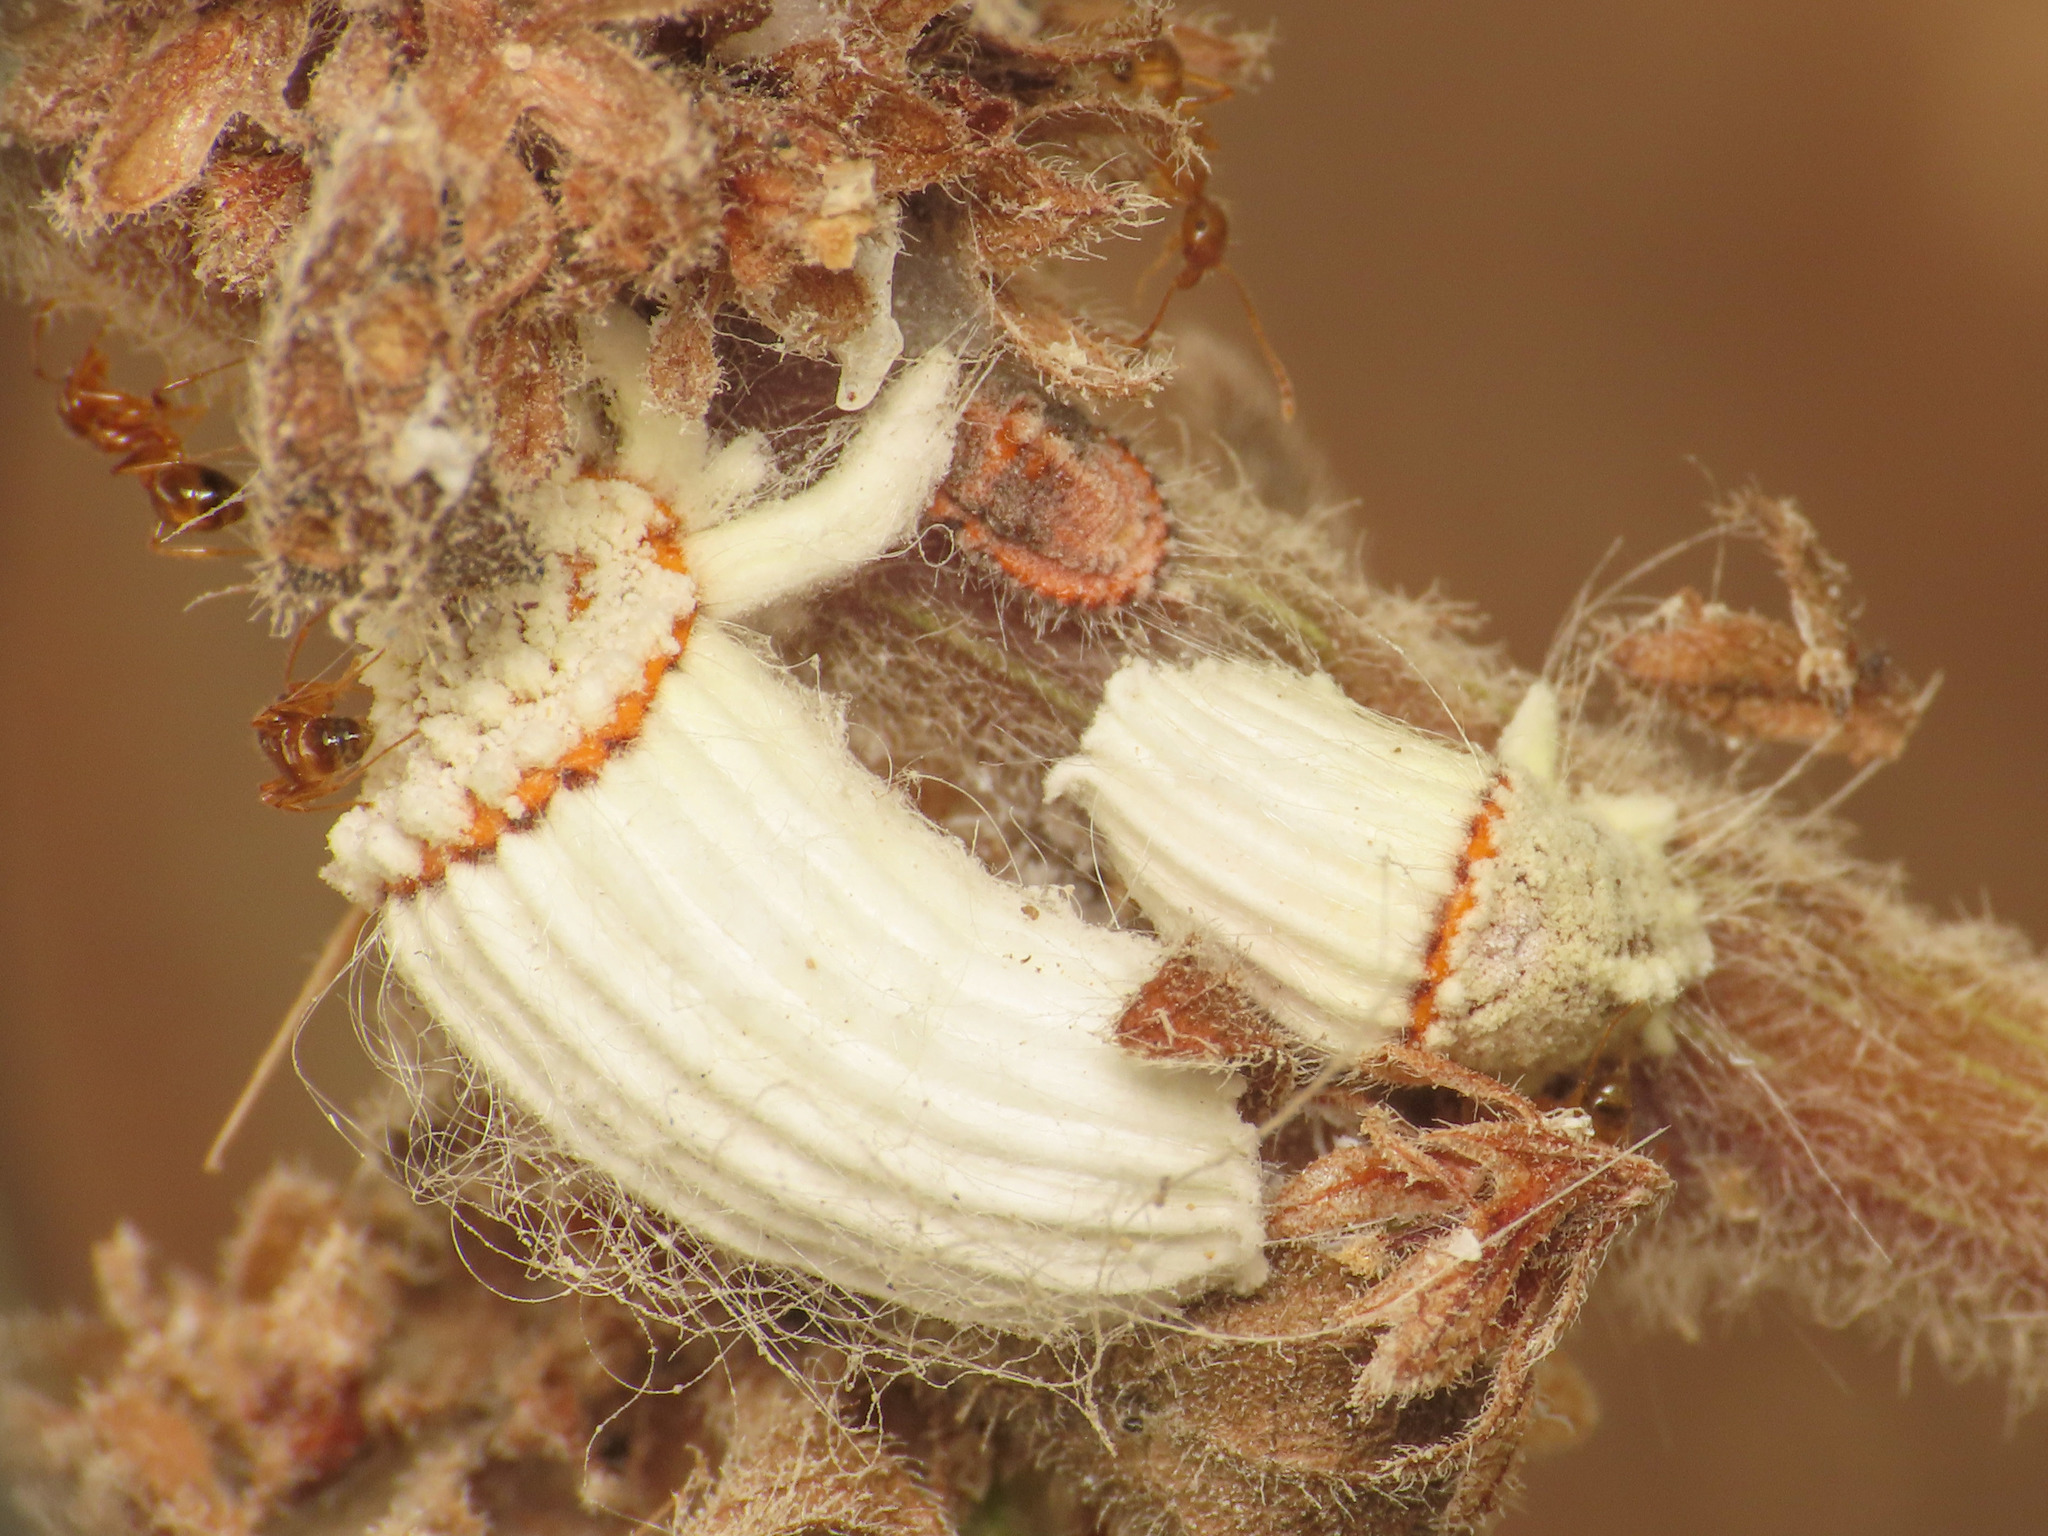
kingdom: Animalia
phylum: Arthropoda
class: Insecta
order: Hemiptera
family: Margarodidae
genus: Icerya
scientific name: Icerya purchasi
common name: Cottony cushion scale
